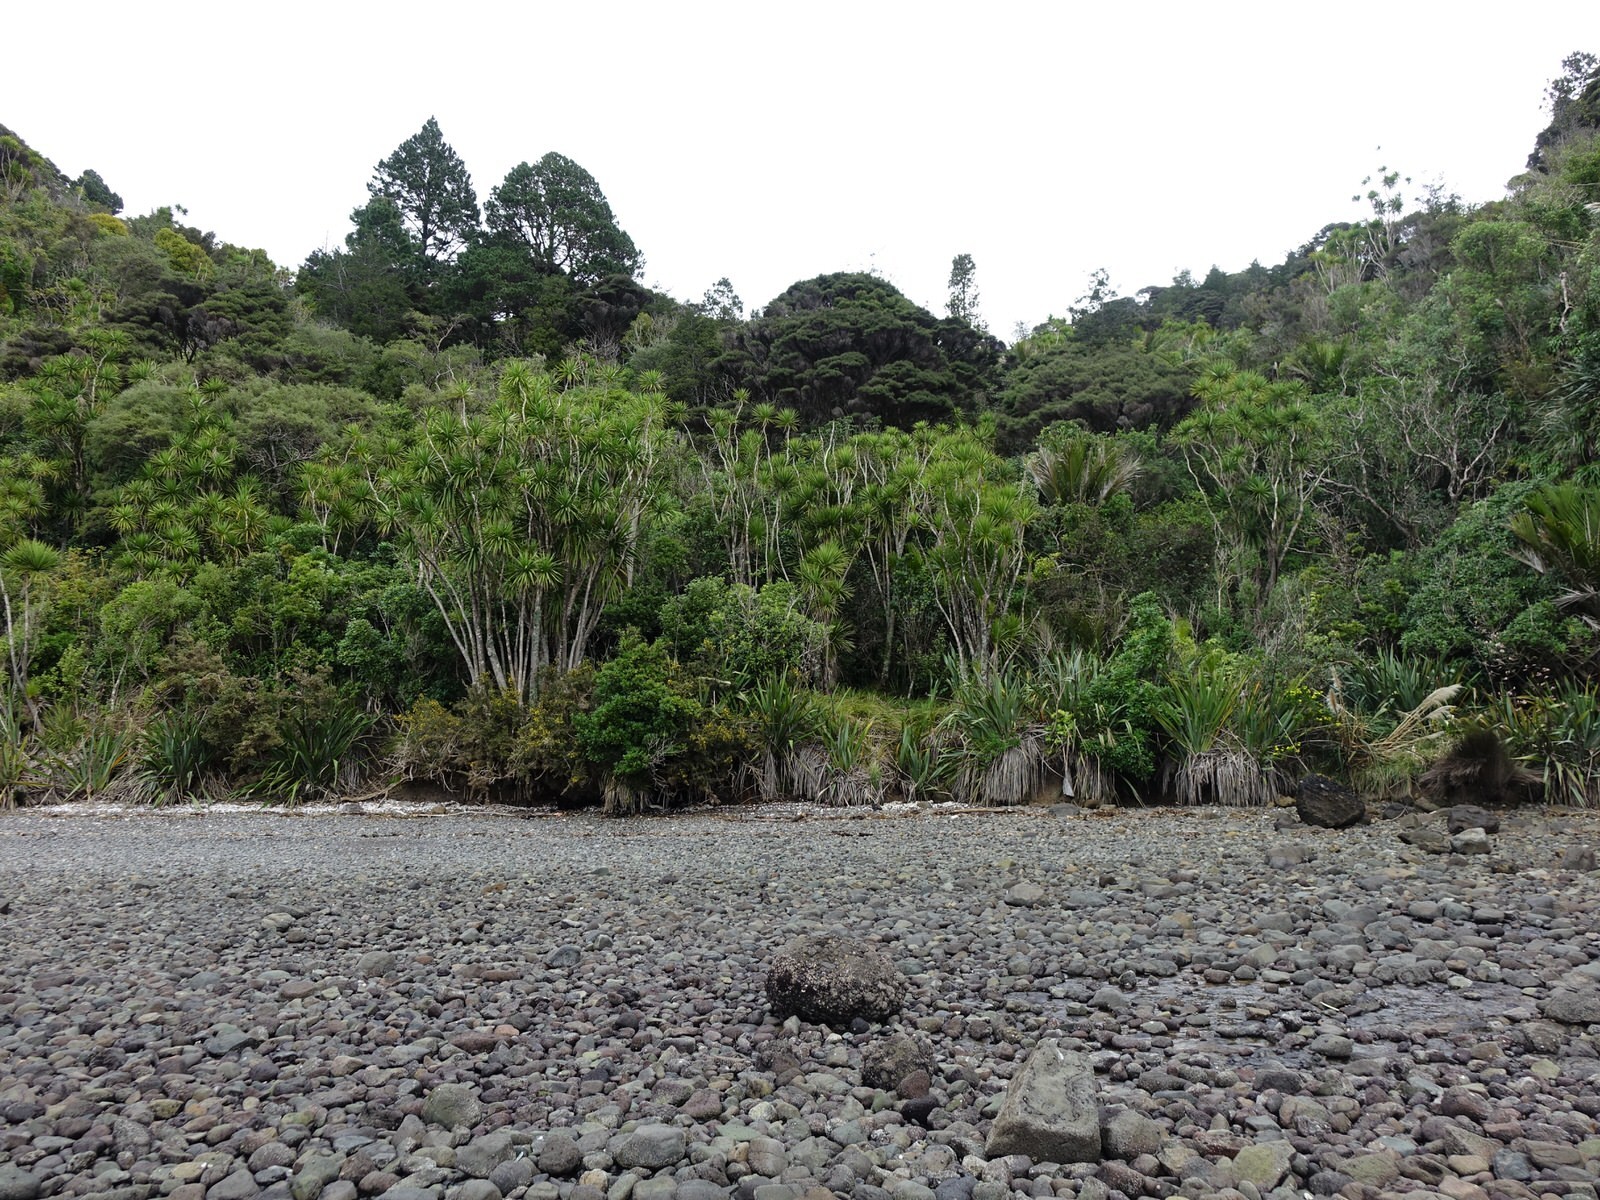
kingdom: Plantae
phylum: Tracheophyta
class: Liliopsida
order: Asparagales
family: Asparagaceae
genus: Cordyline
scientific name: Cordyline australis
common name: Cabbage-palm
